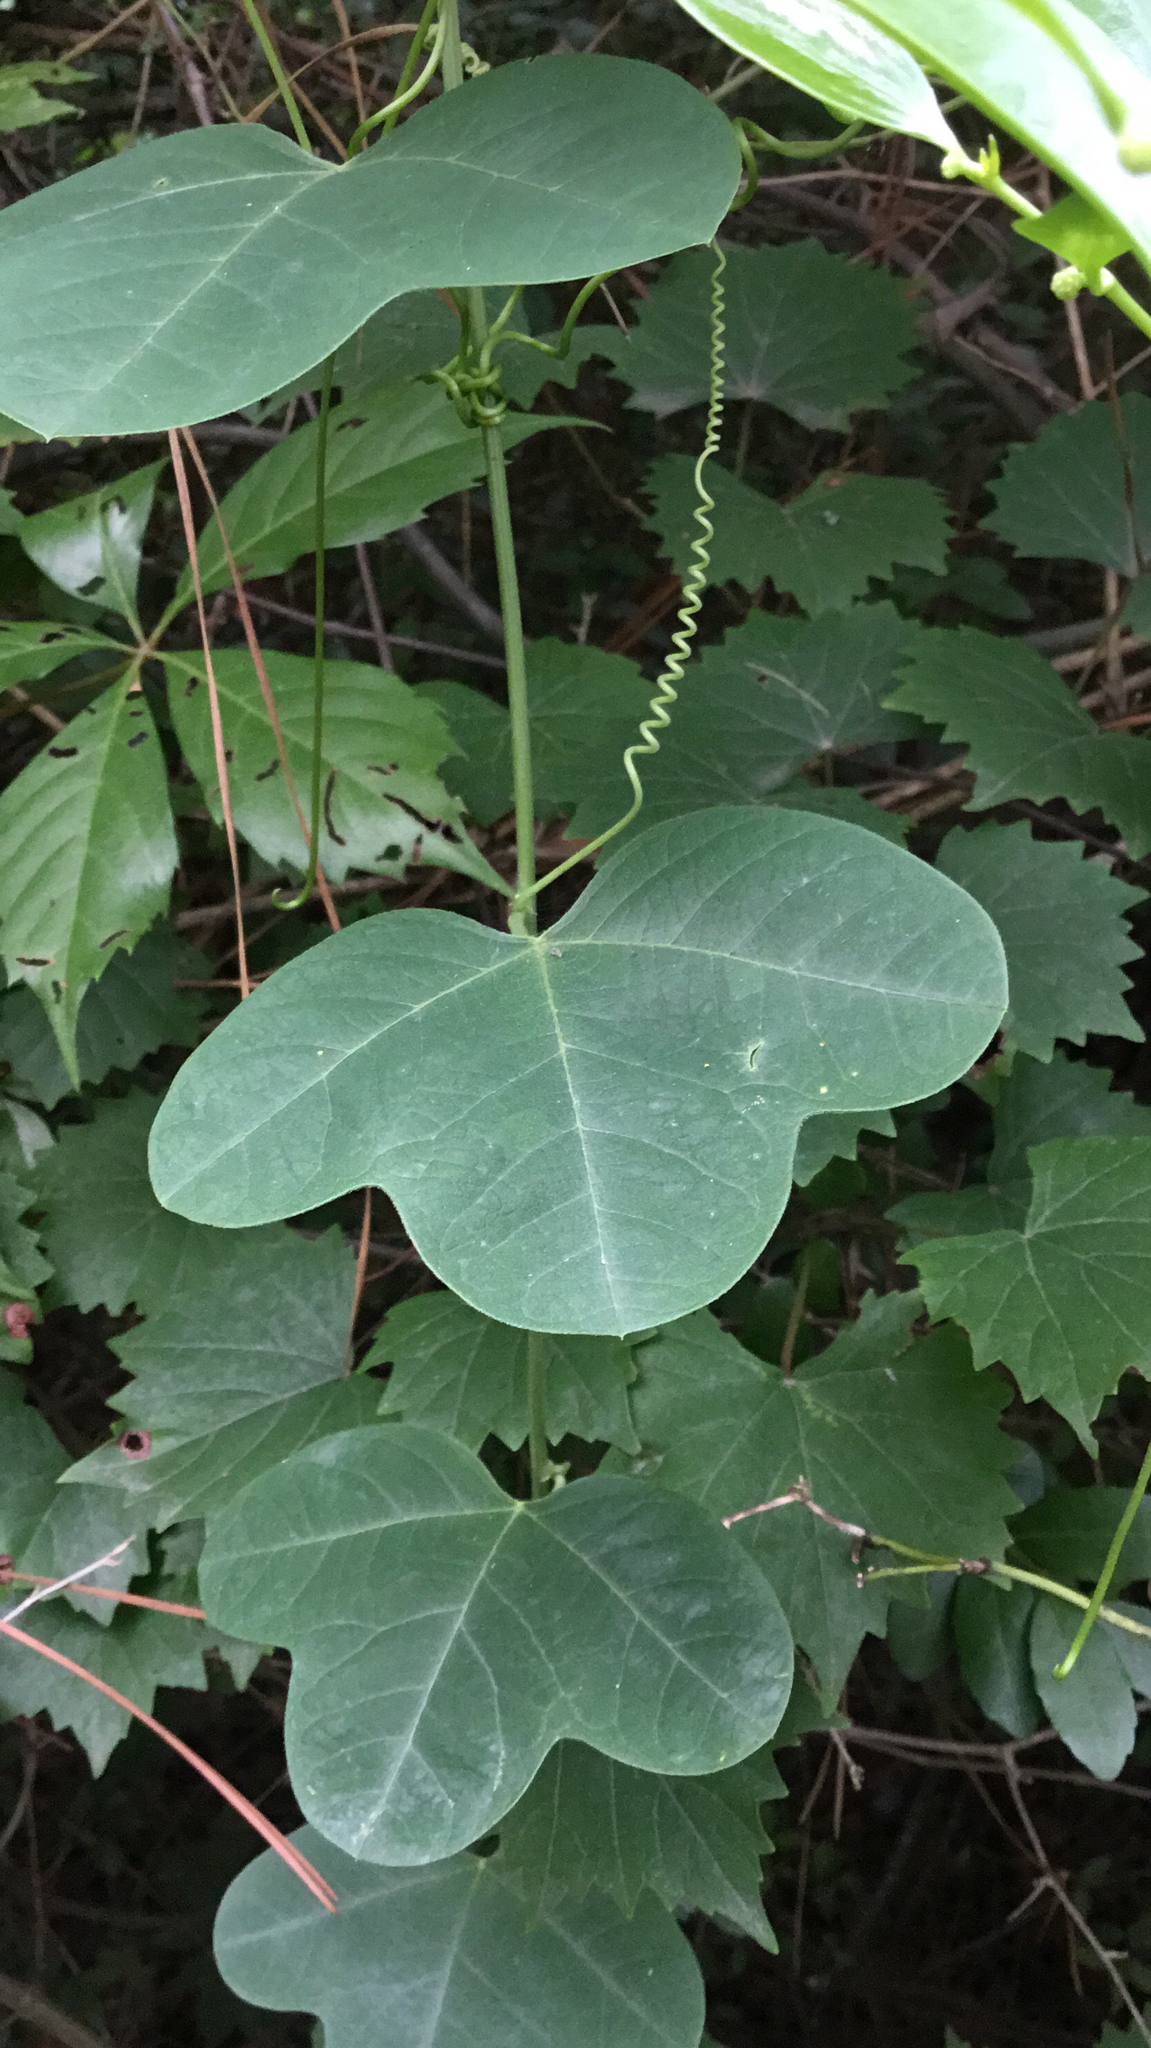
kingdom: Plantae
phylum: Tracheophyta
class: Magnoliopsida
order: Malpighiales
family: Passifloraceae
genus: Passiflora
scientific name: Passiflora lutea
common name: Yellow passionflower
